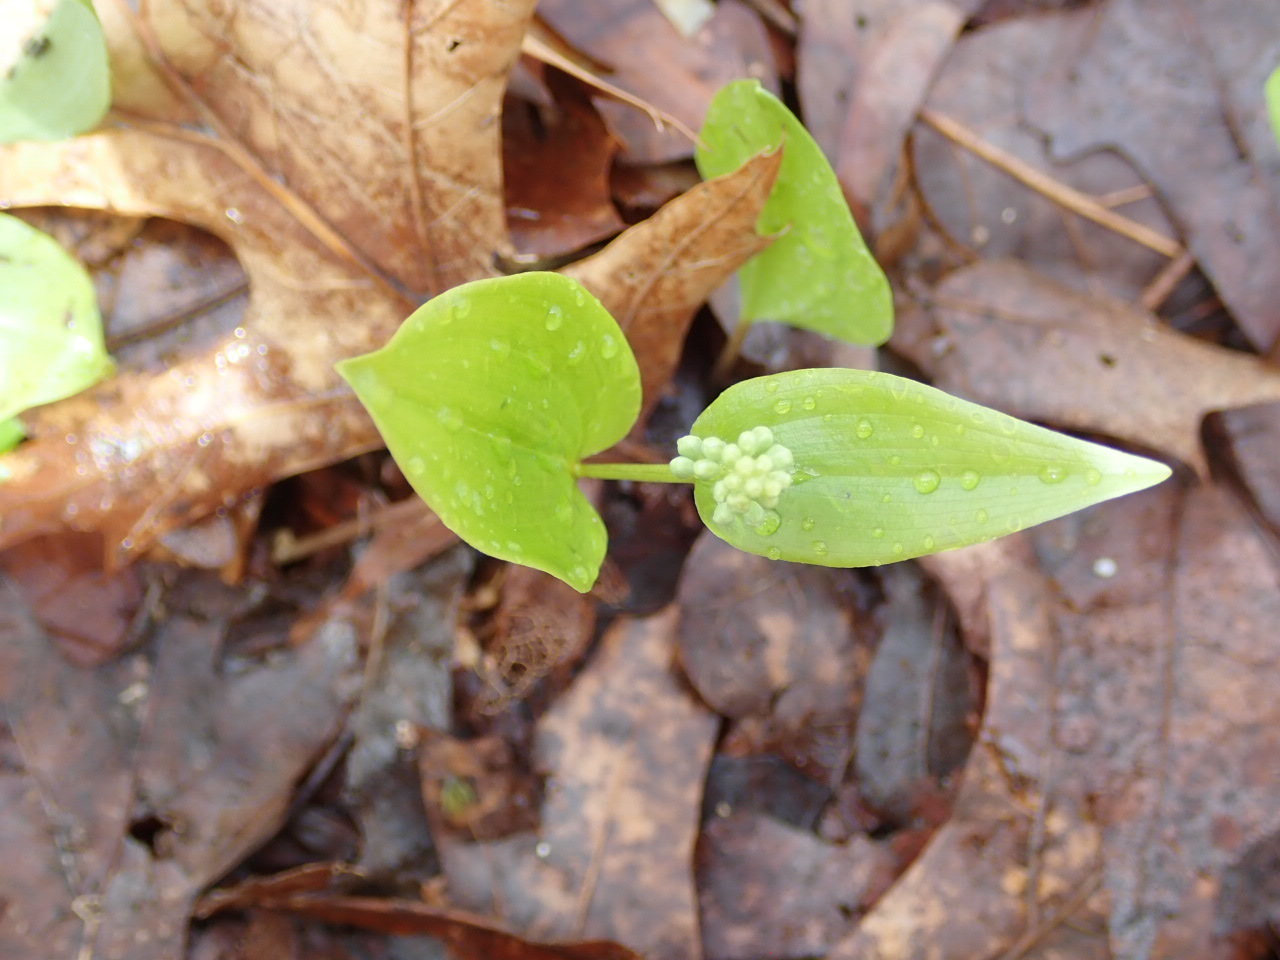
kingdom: Plantae
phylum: Tracheophyta
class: Liliopsida
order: Asparagales
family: Asparagaceae
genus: Maianthemum
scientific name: Maianthemum canadense
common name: False lily-of-the-valley
